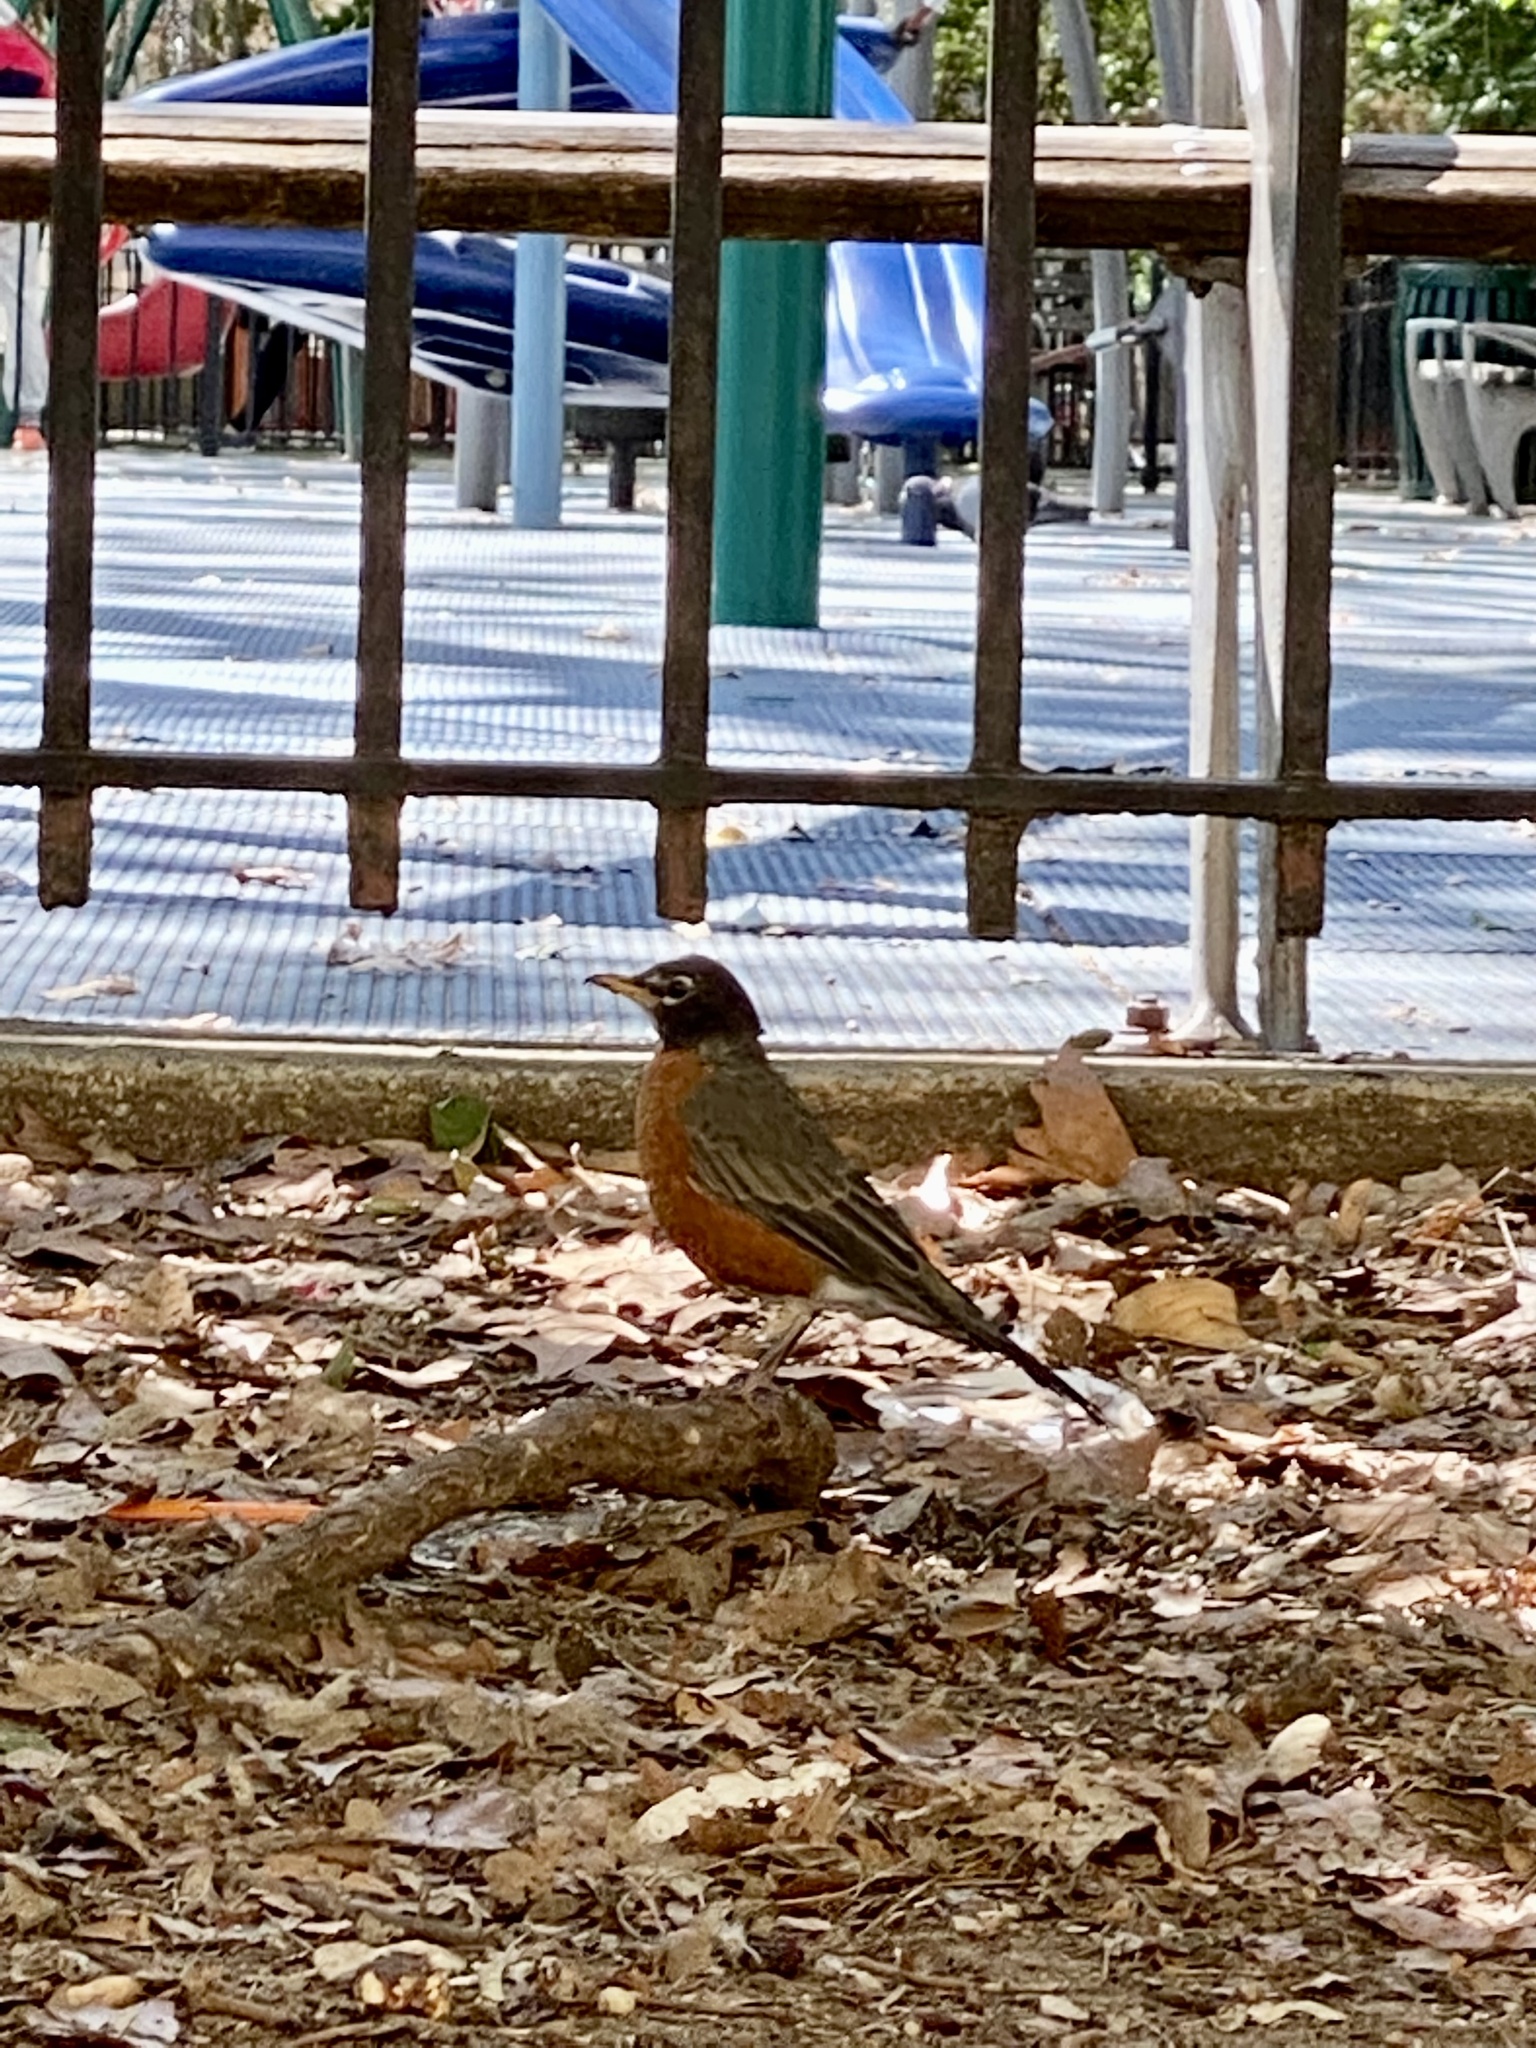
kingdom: Animalia
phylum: Chordata
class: Aves
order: Passeriformes
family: Turdidae
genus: Turdus
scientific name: Turdus migratorius
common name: American robin
